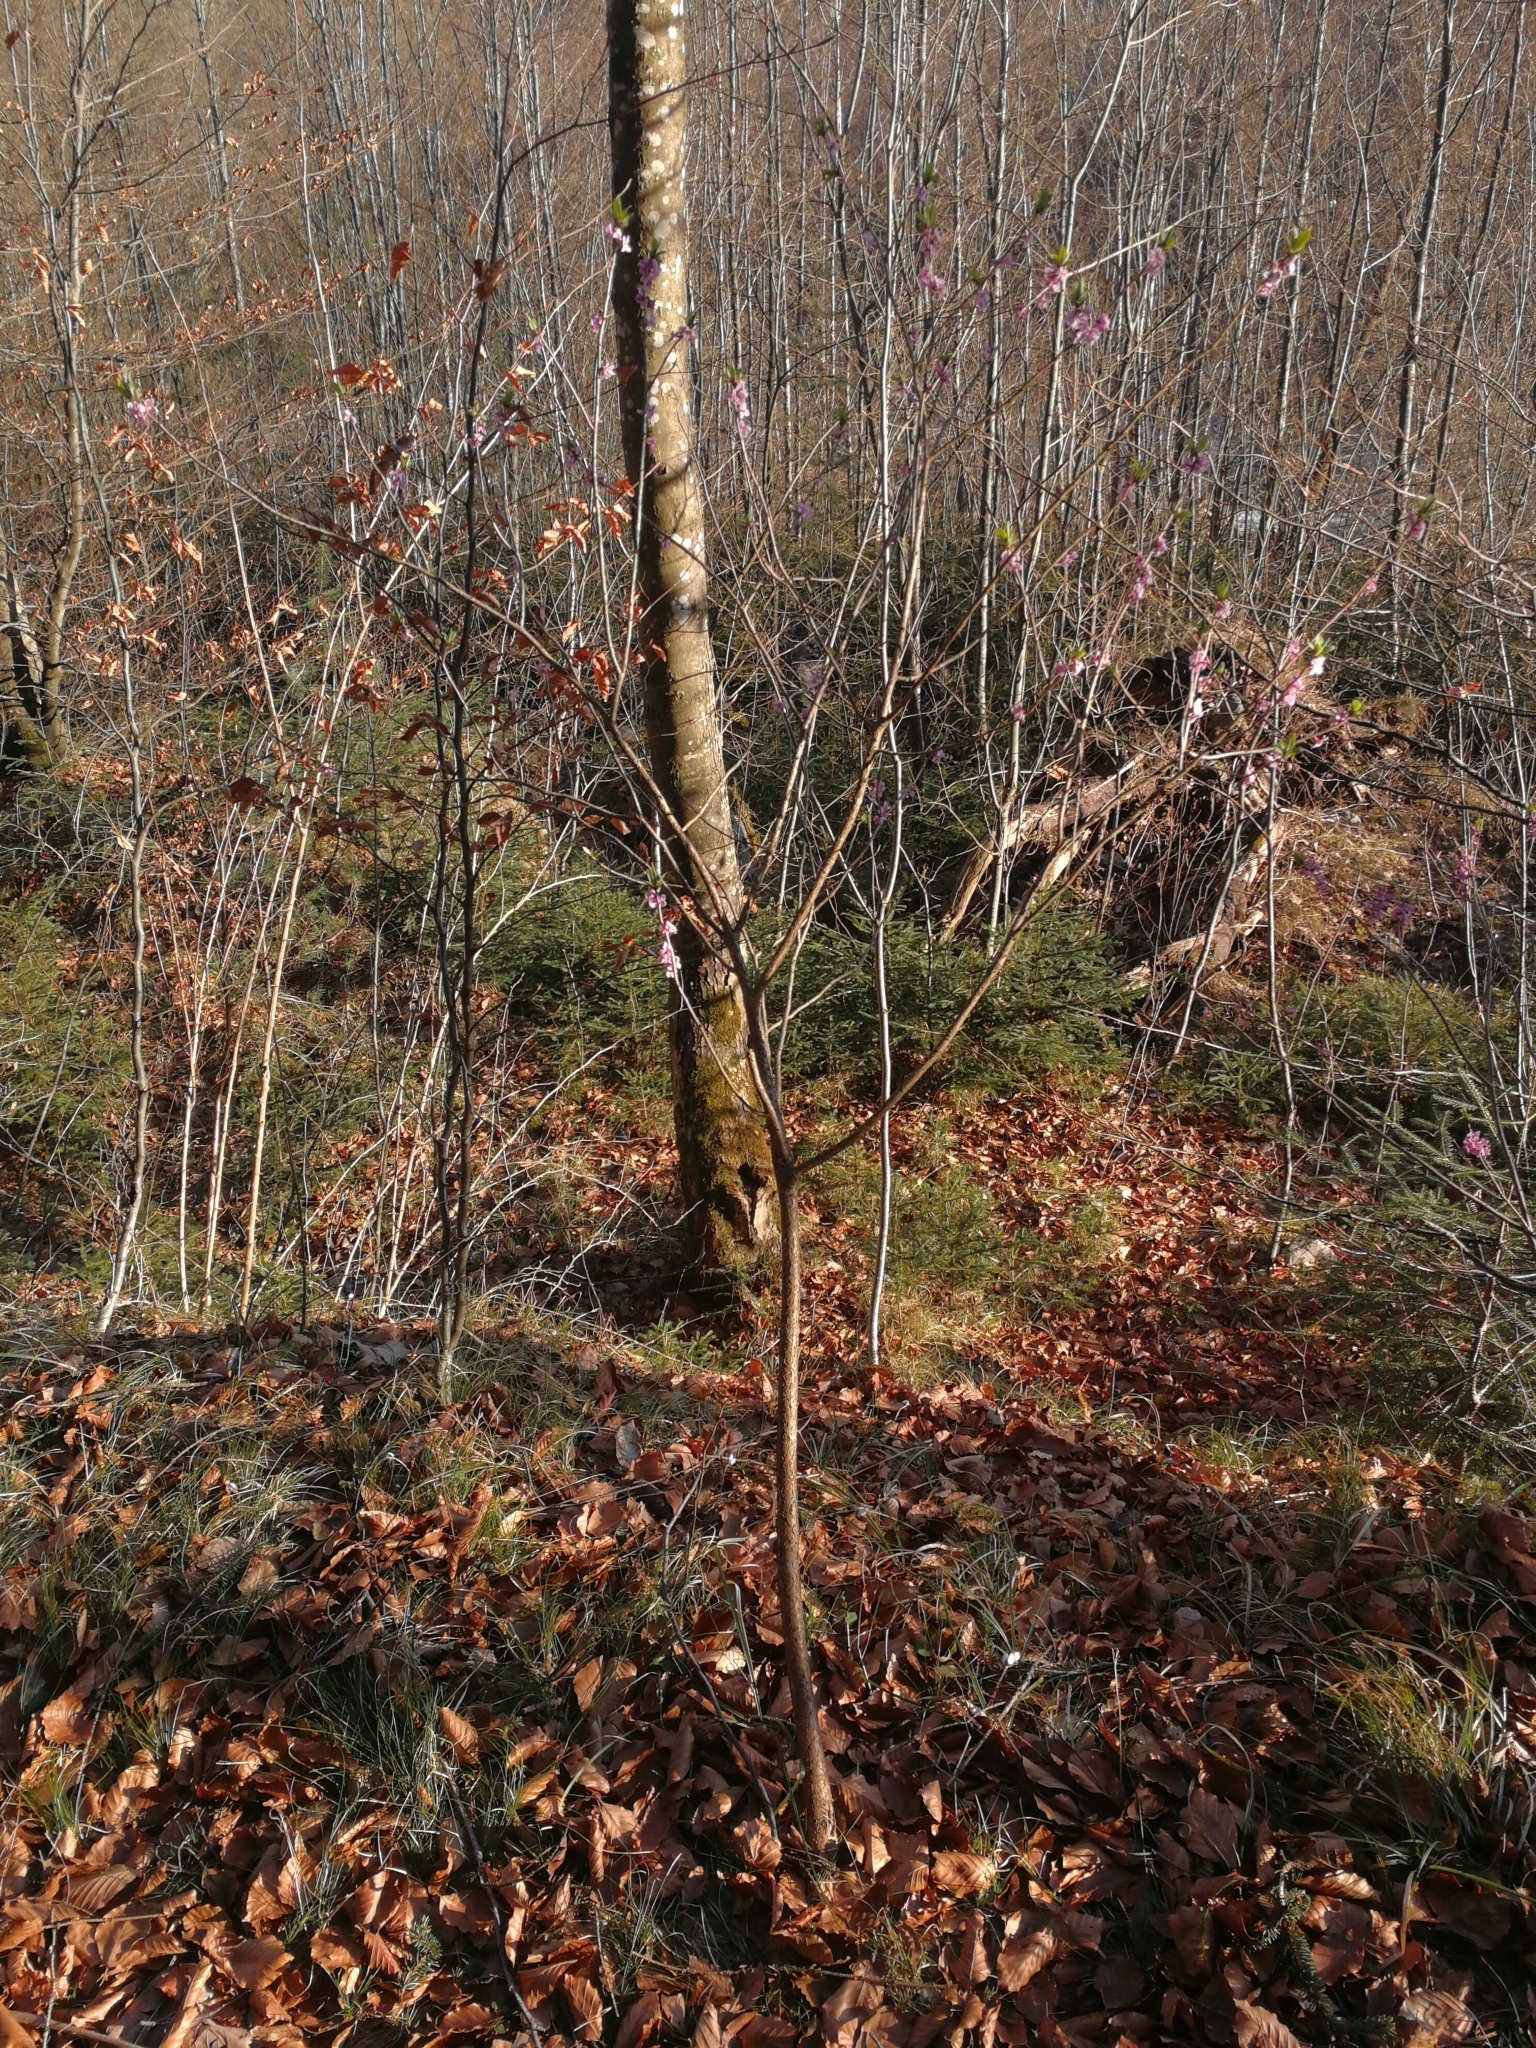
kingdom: Plantae
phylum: Tracheophyta
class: Magnoliopsida
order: Malvales
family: Thymelaeaceae
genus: Daphne
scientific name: Daphne mezereum
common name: Mezereon
